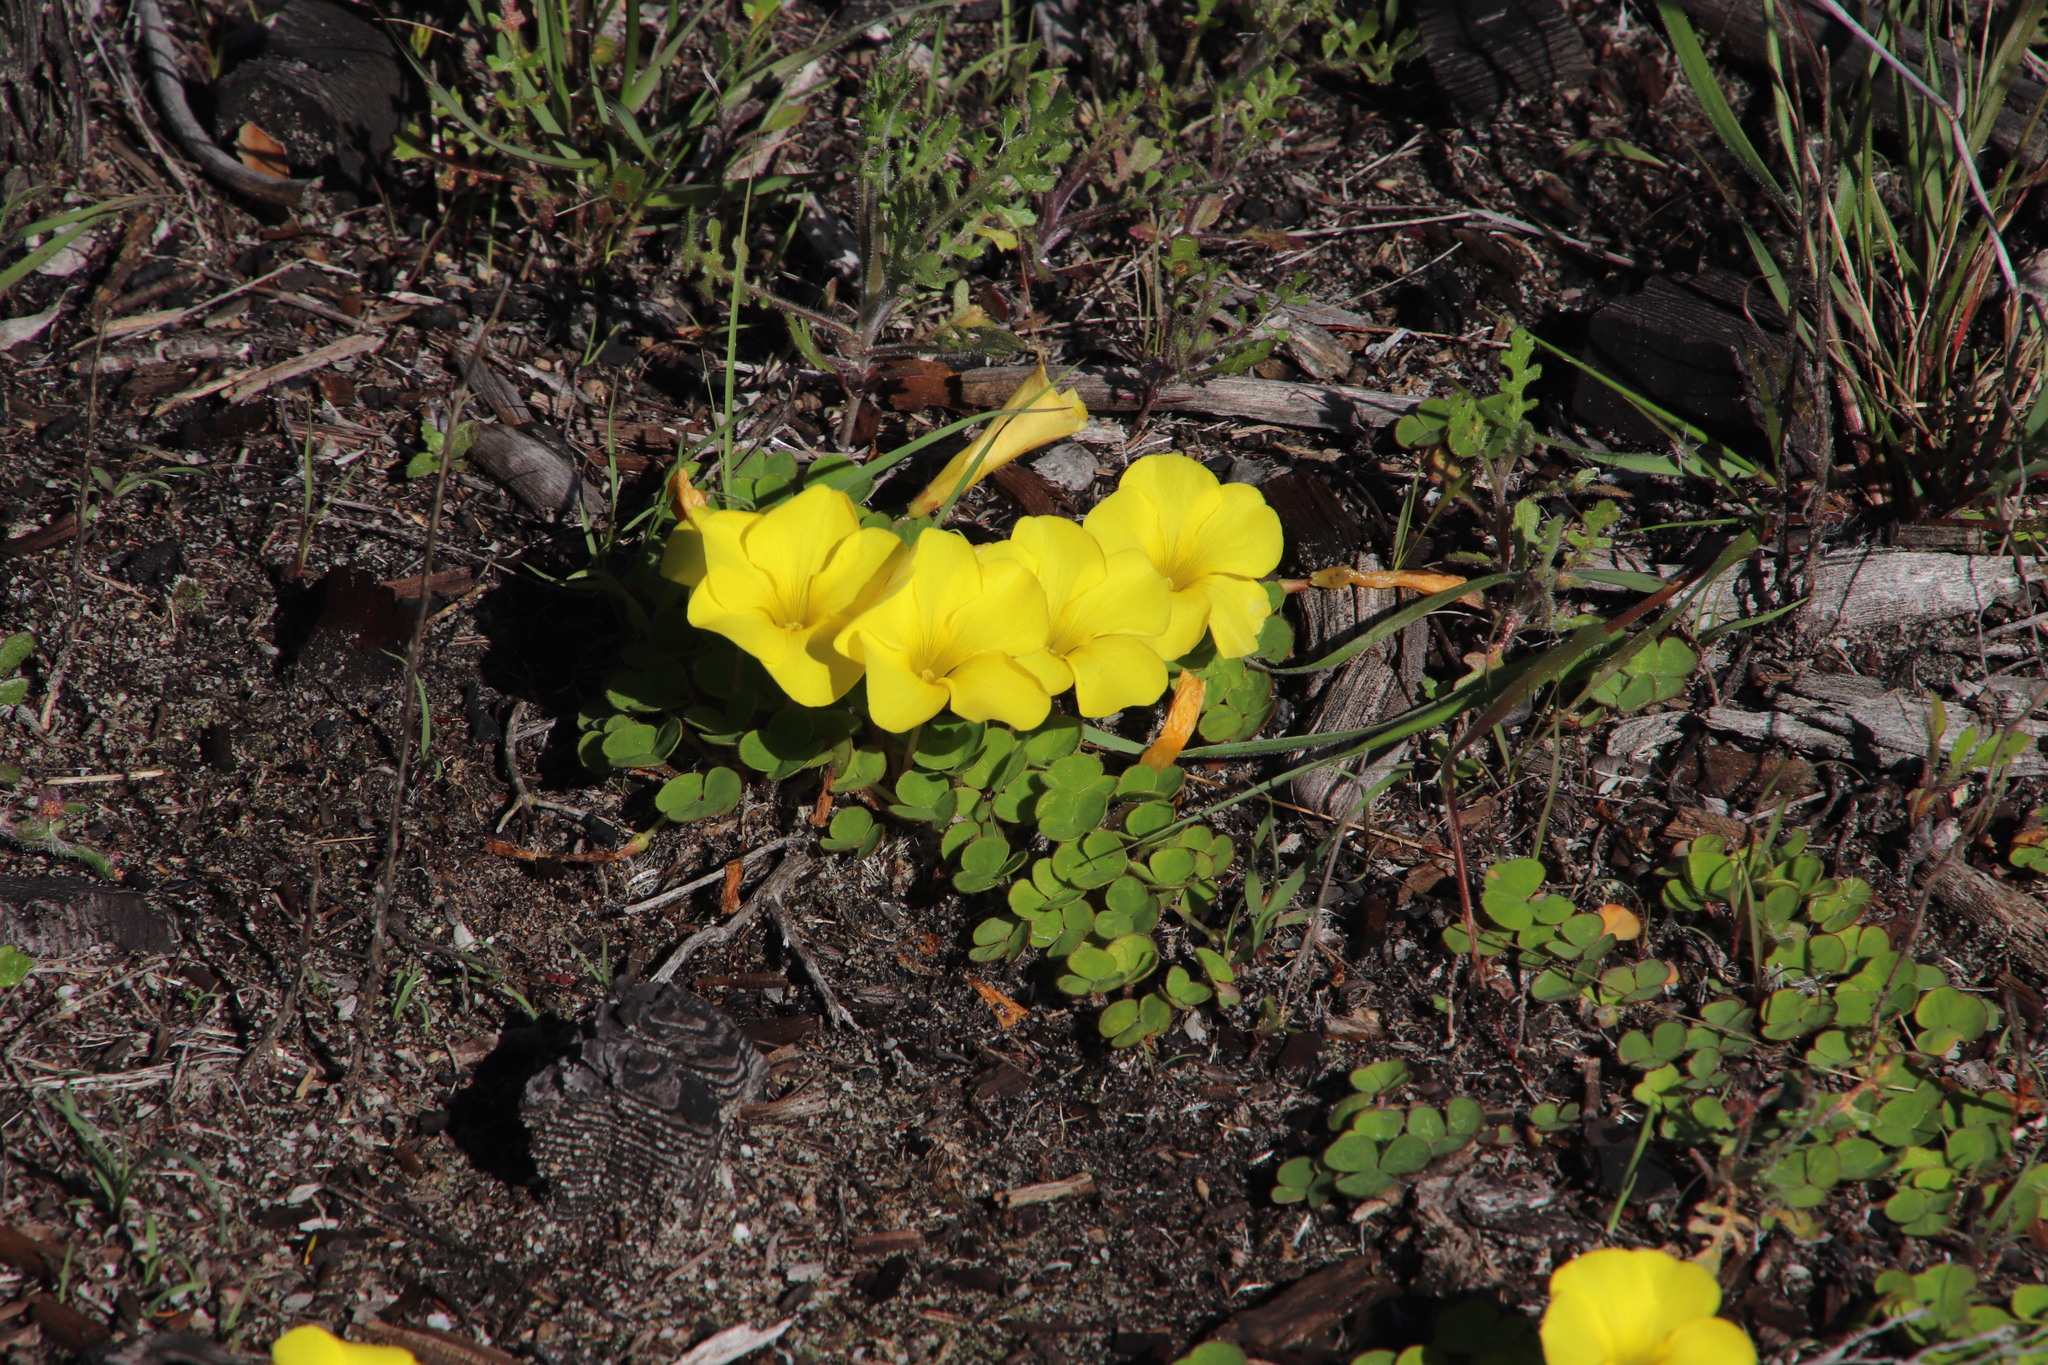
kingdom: Plantae
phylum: Tracheophyta
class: Magnoliopsida
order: Oxalidales
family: Oxalidaceae
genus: Oxalis
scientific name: Oxalis luteola
